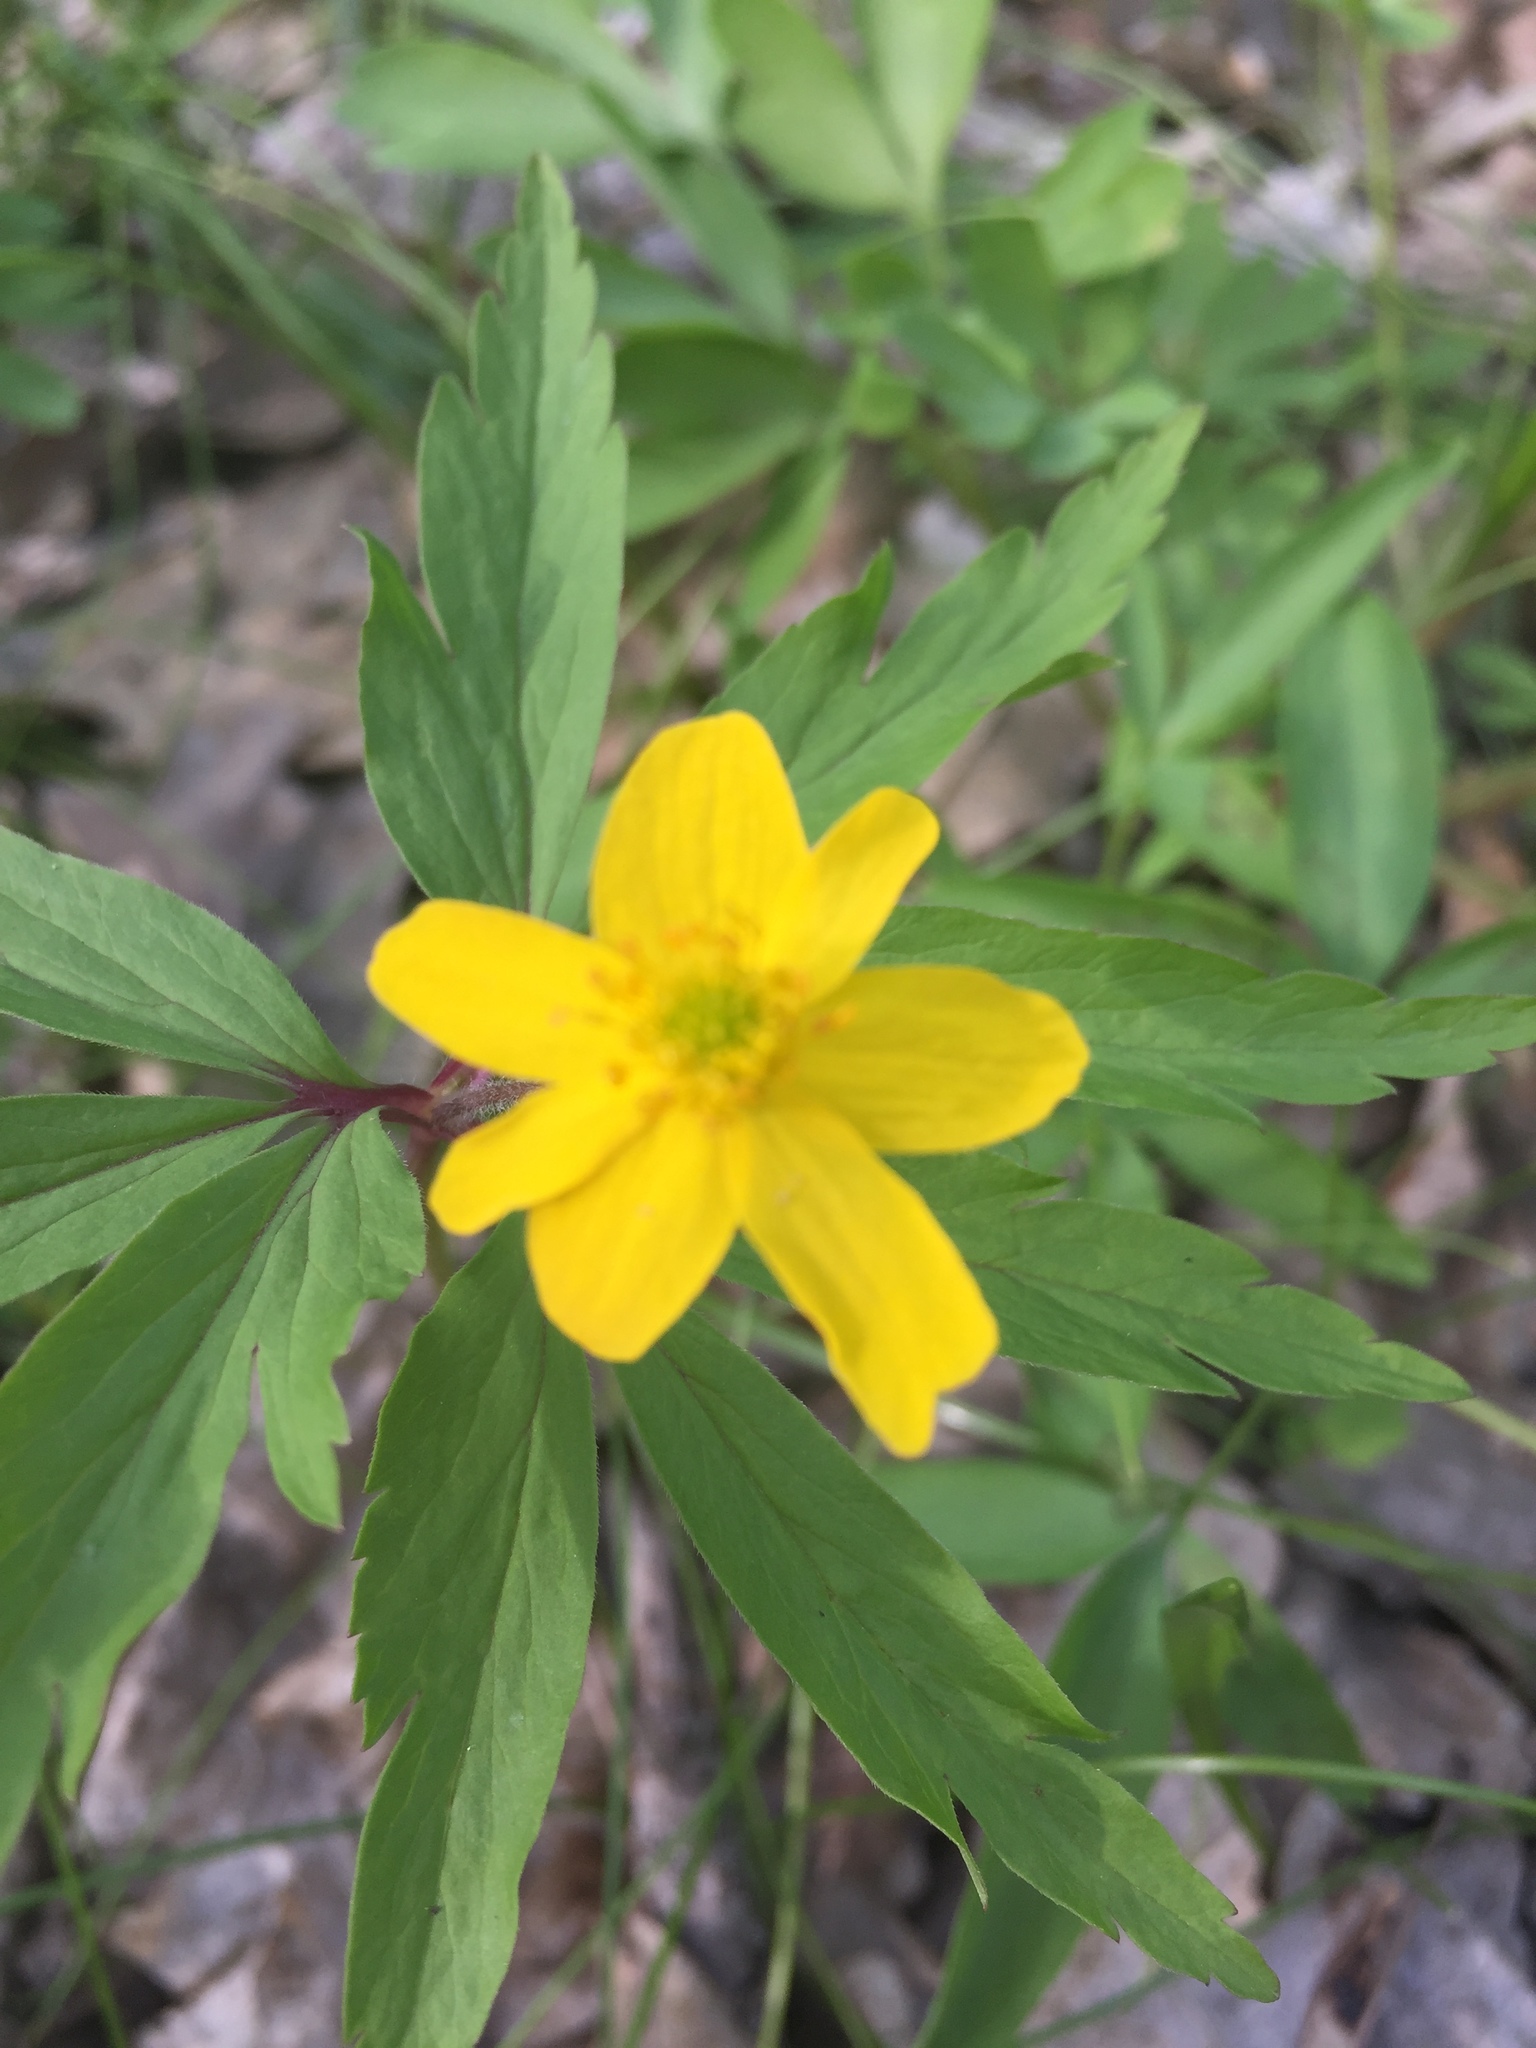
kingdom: Plantae
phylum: Tracheophyta
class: Magnoliopsida
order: Ranunculales
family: Ranunculaceae
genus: Anemone
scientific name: Anemone ranunculoides
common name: Yellow anemone
